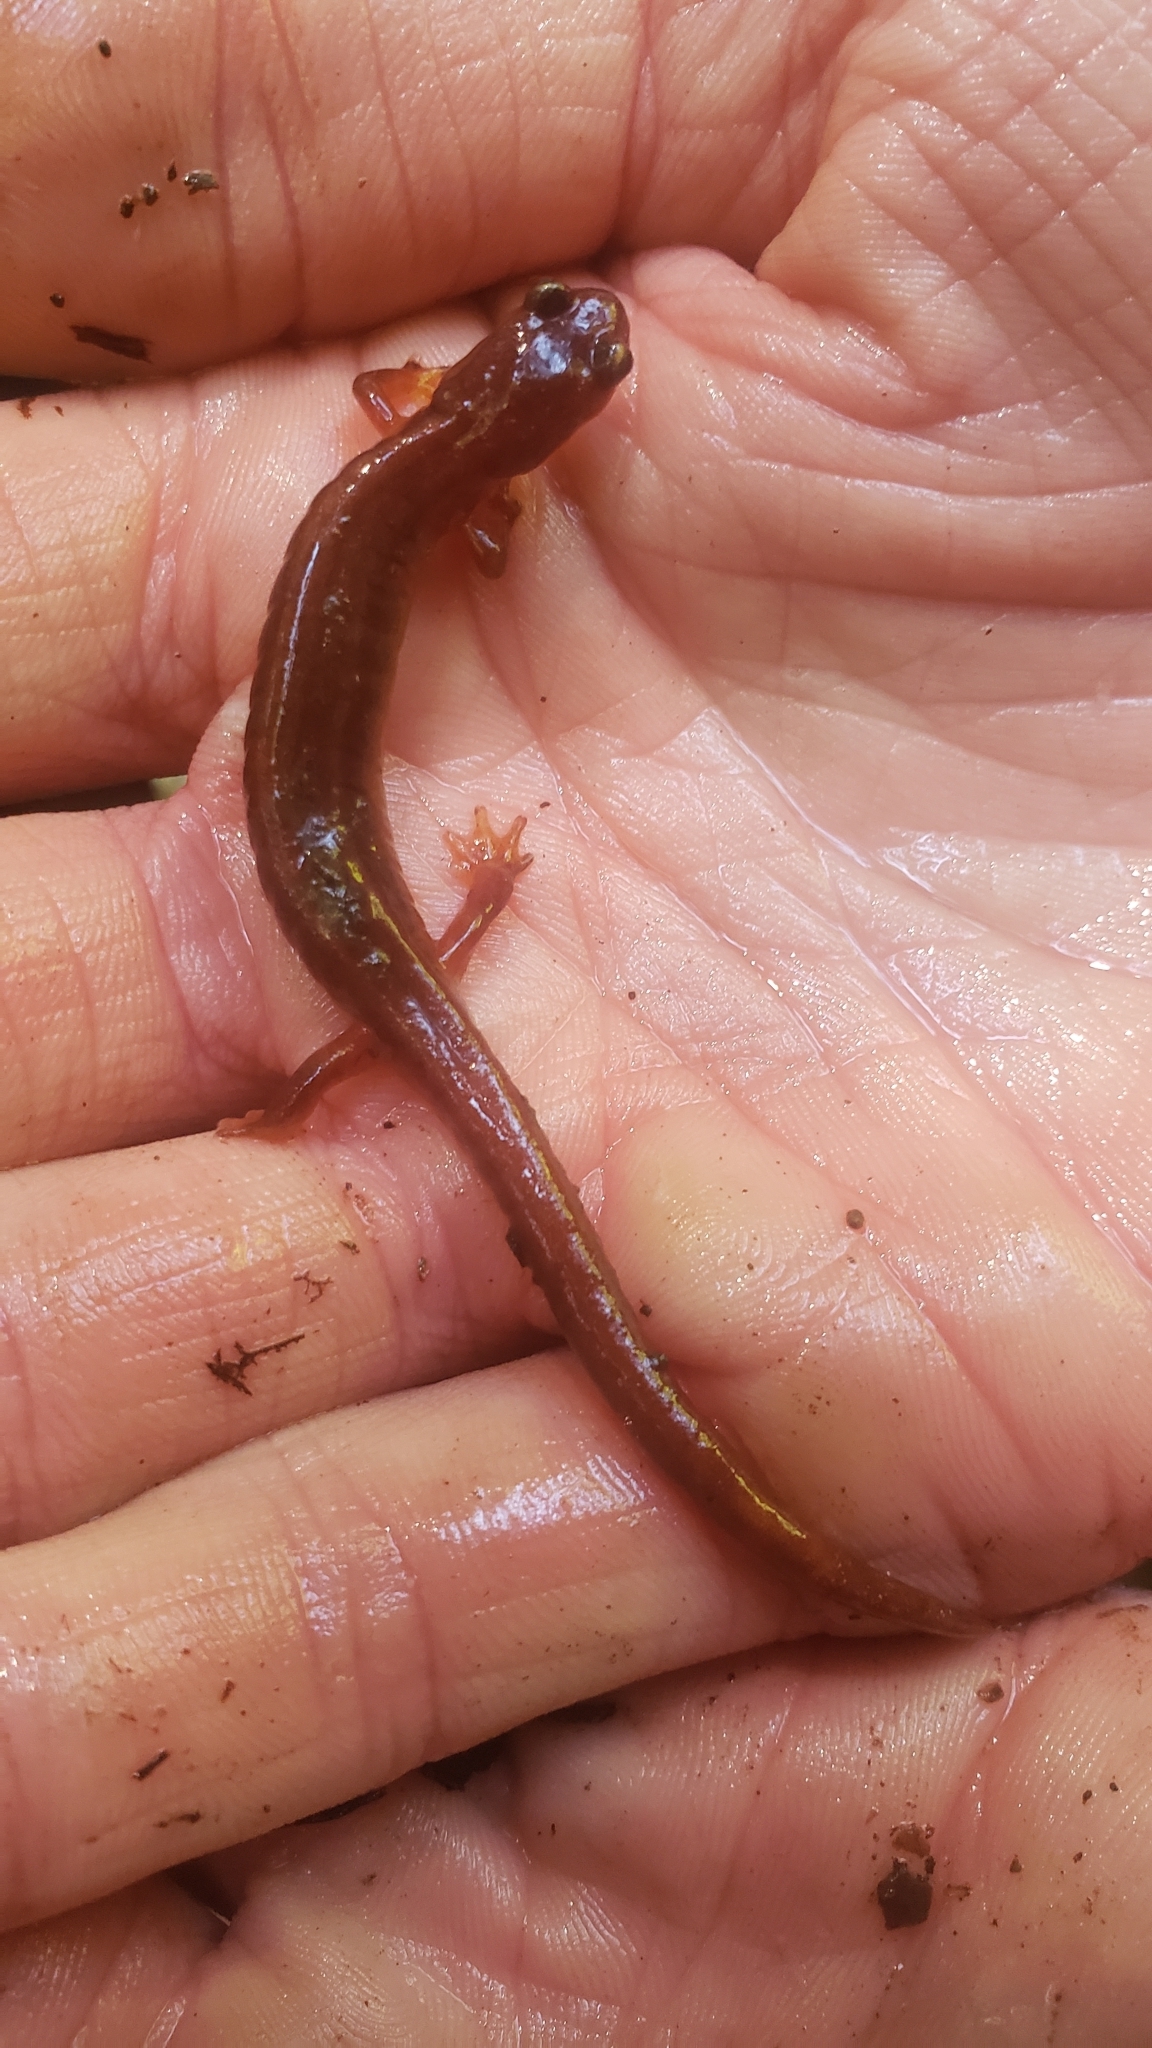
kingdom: Animalia
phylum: Chordata
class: Amphibia
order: Caudata
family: Plethodontidae
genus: Plethodon
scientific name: Plethodon vehiculum
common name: Western red-backed salamander
